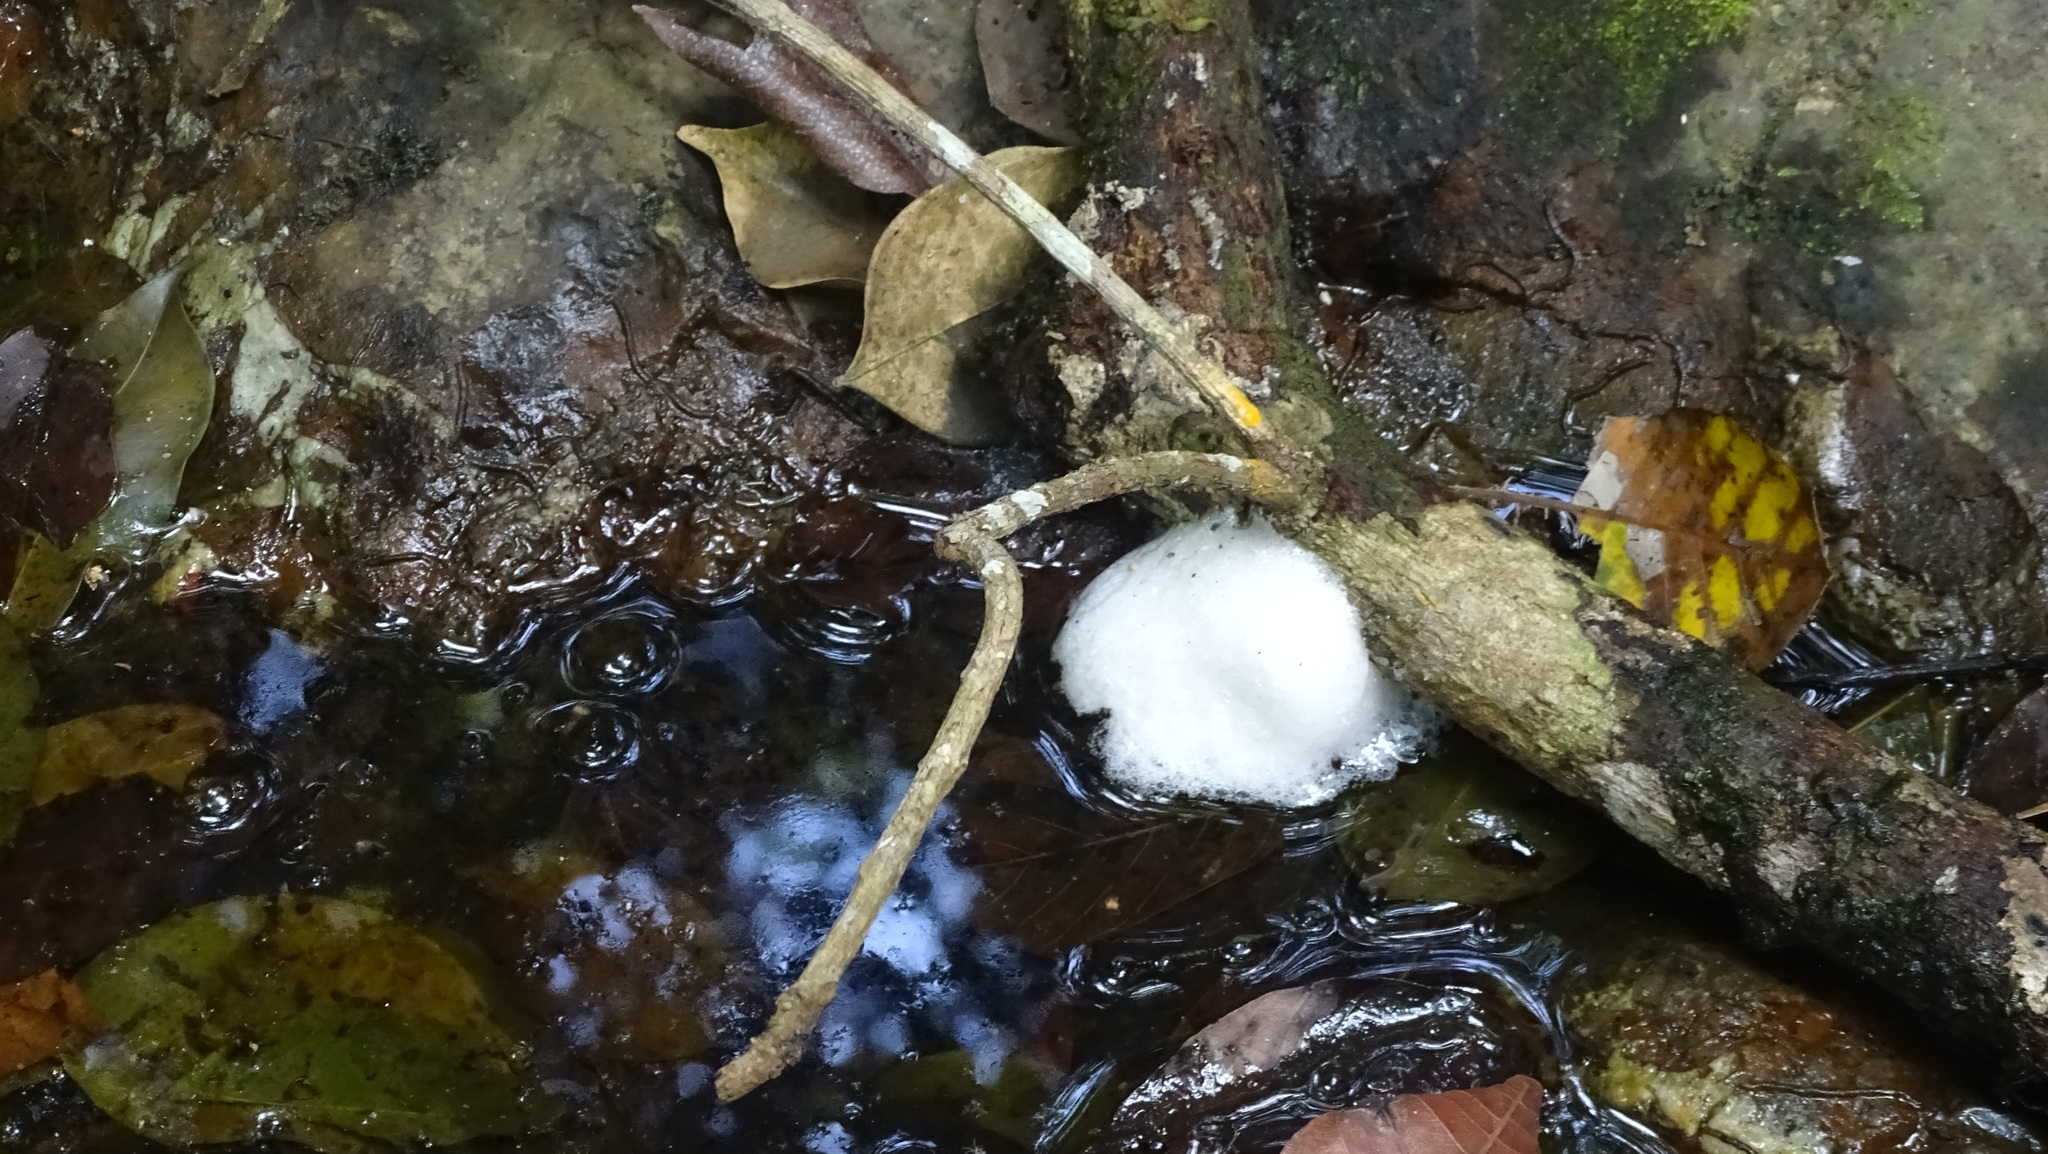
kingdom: Animalia
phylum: Chordata
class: Amphibia
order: Anura
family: Leptodactylidae
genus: Engystomops
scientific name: Engystomops pustulosus
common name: Tungara frog
